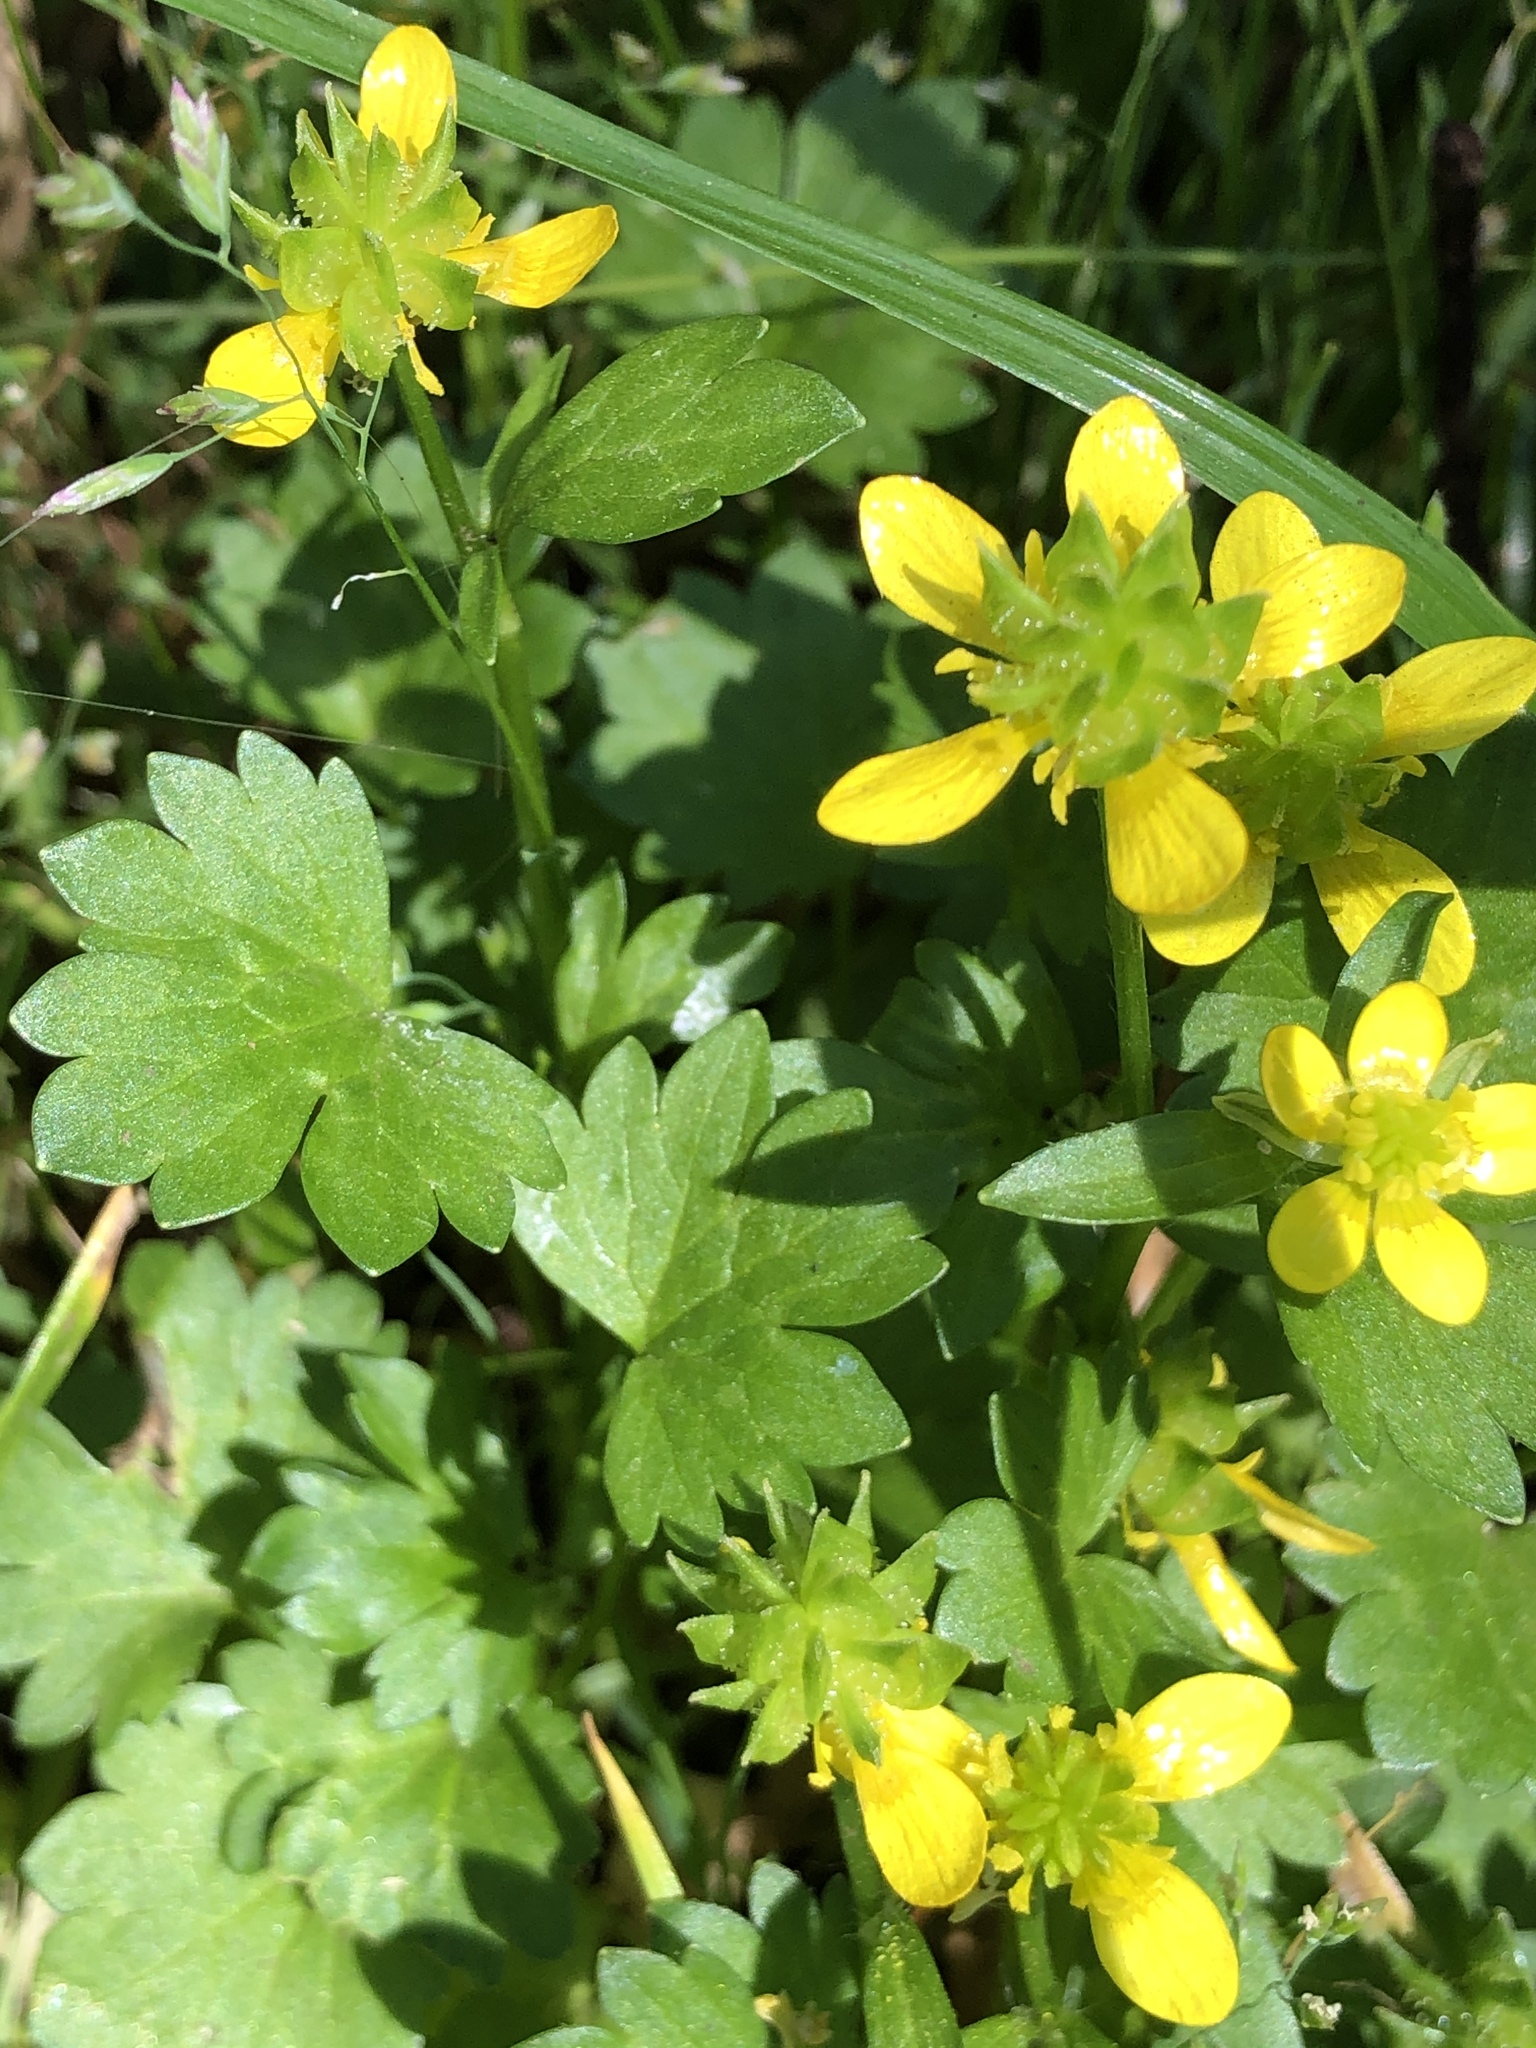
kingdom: Plantae
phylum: Tracheophyta
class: Magnoliopsida
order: Ranunculales
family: Ranunculaceae
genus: Ranunculus
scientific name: Ranunculus muricatus
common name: Rough-fruited buttercup
